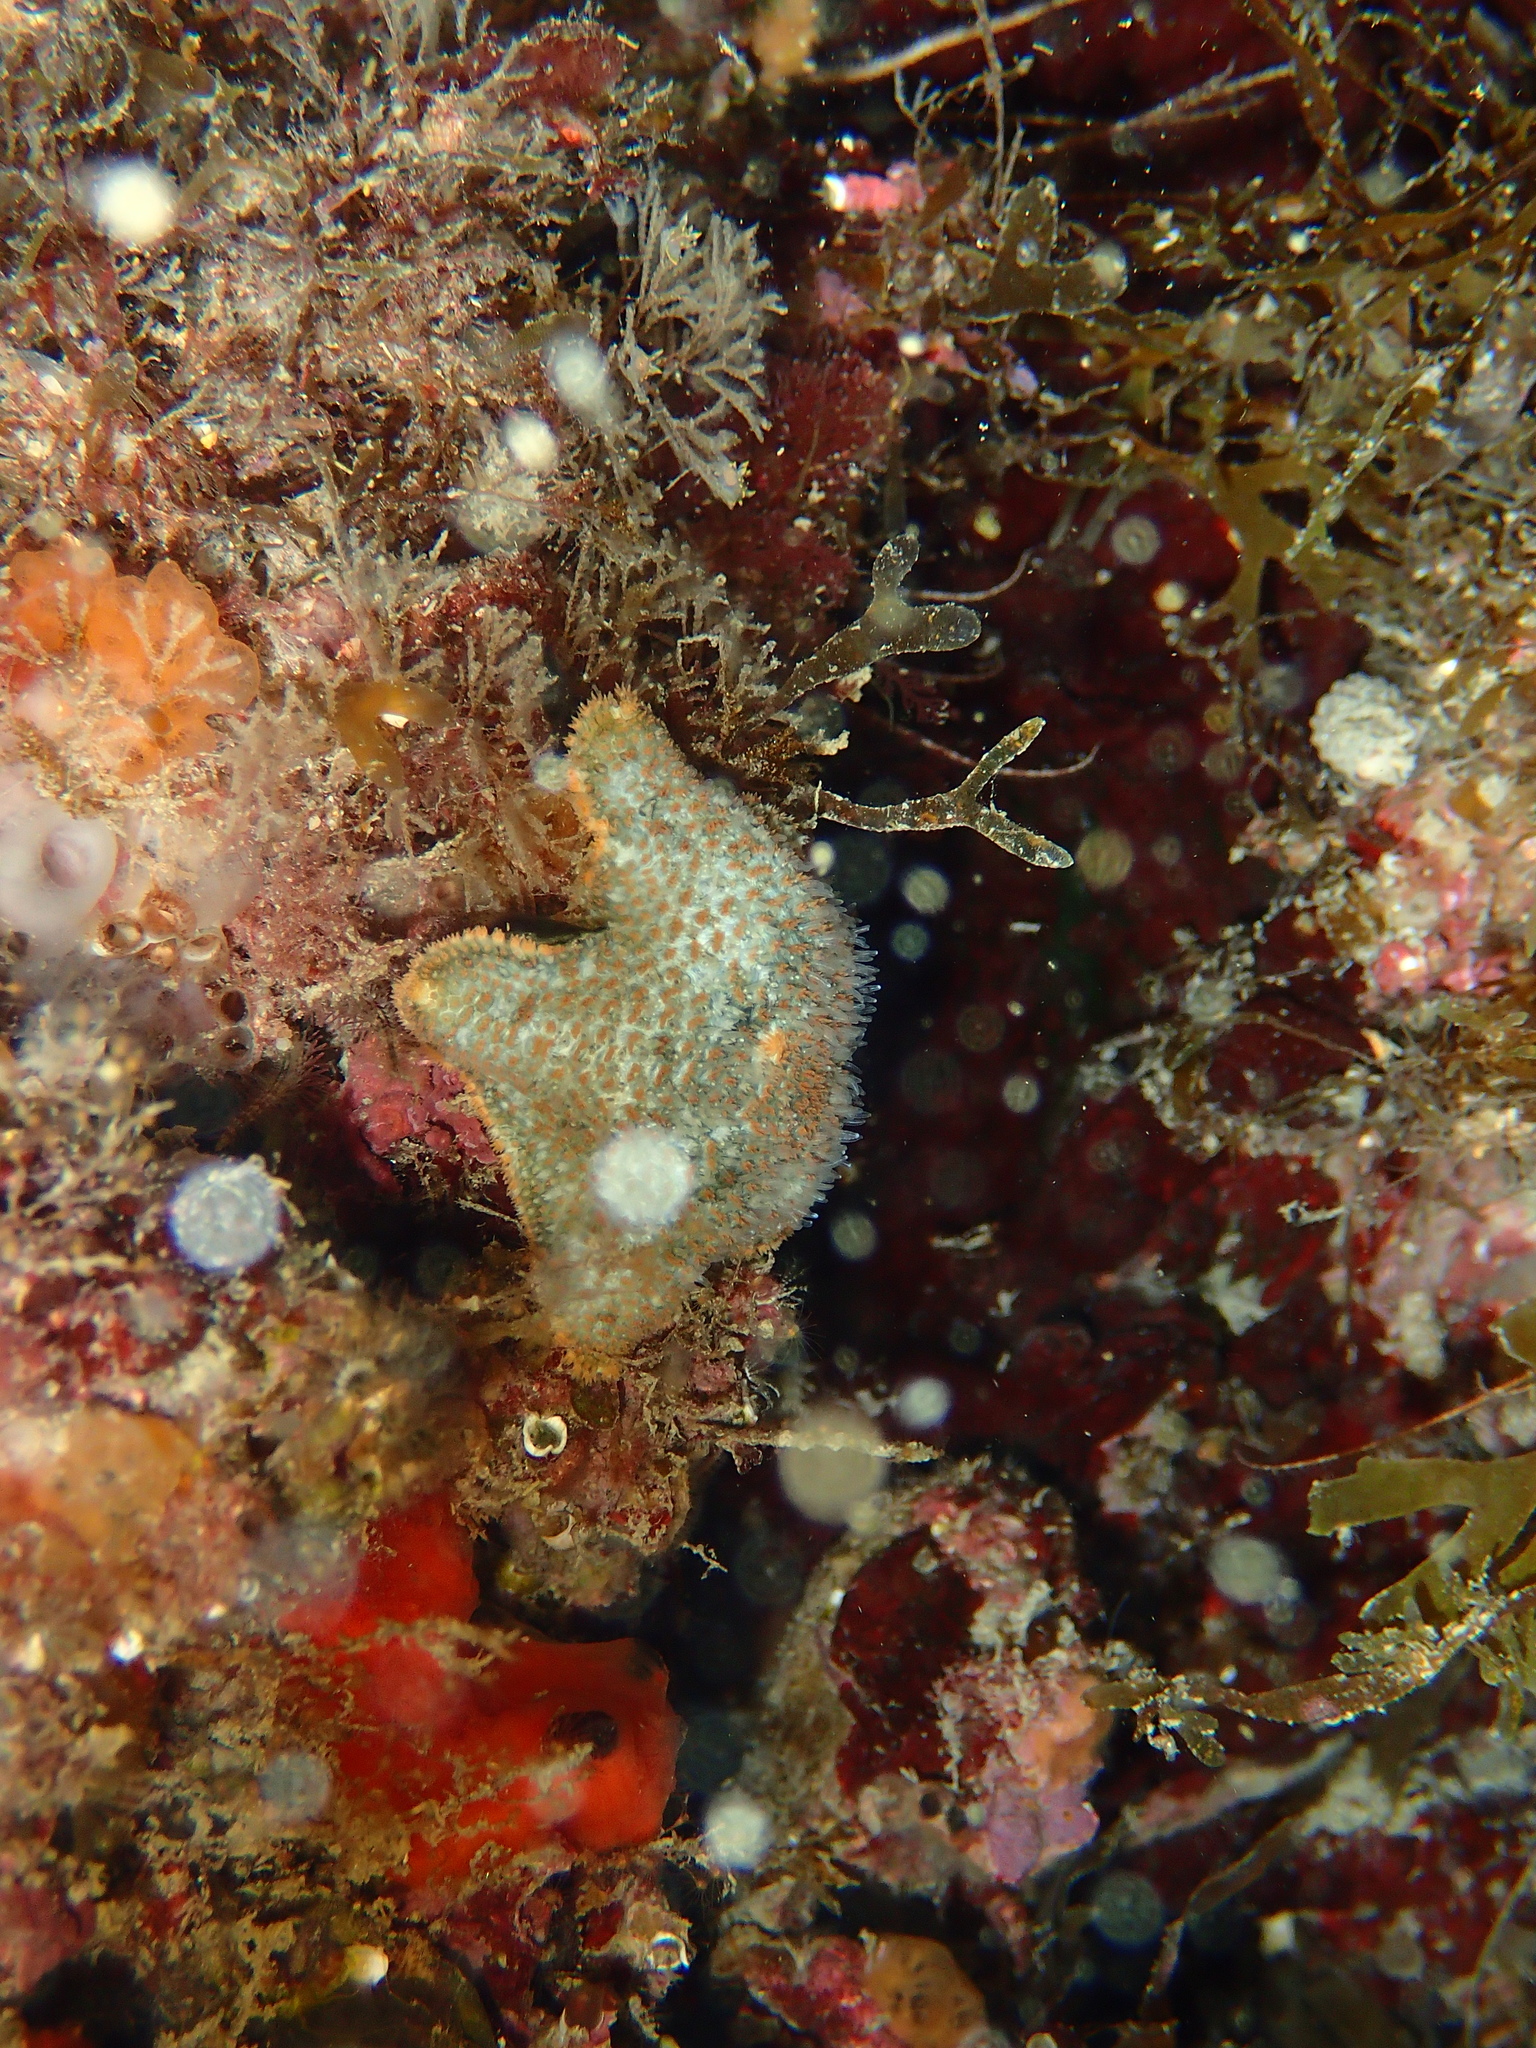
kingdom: Animalia
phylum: Echinodermata
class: Asteroidea
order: Valvatida
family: Asterinidae
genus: Asterina
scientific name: Asterina gibbosa
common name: Cushion star
